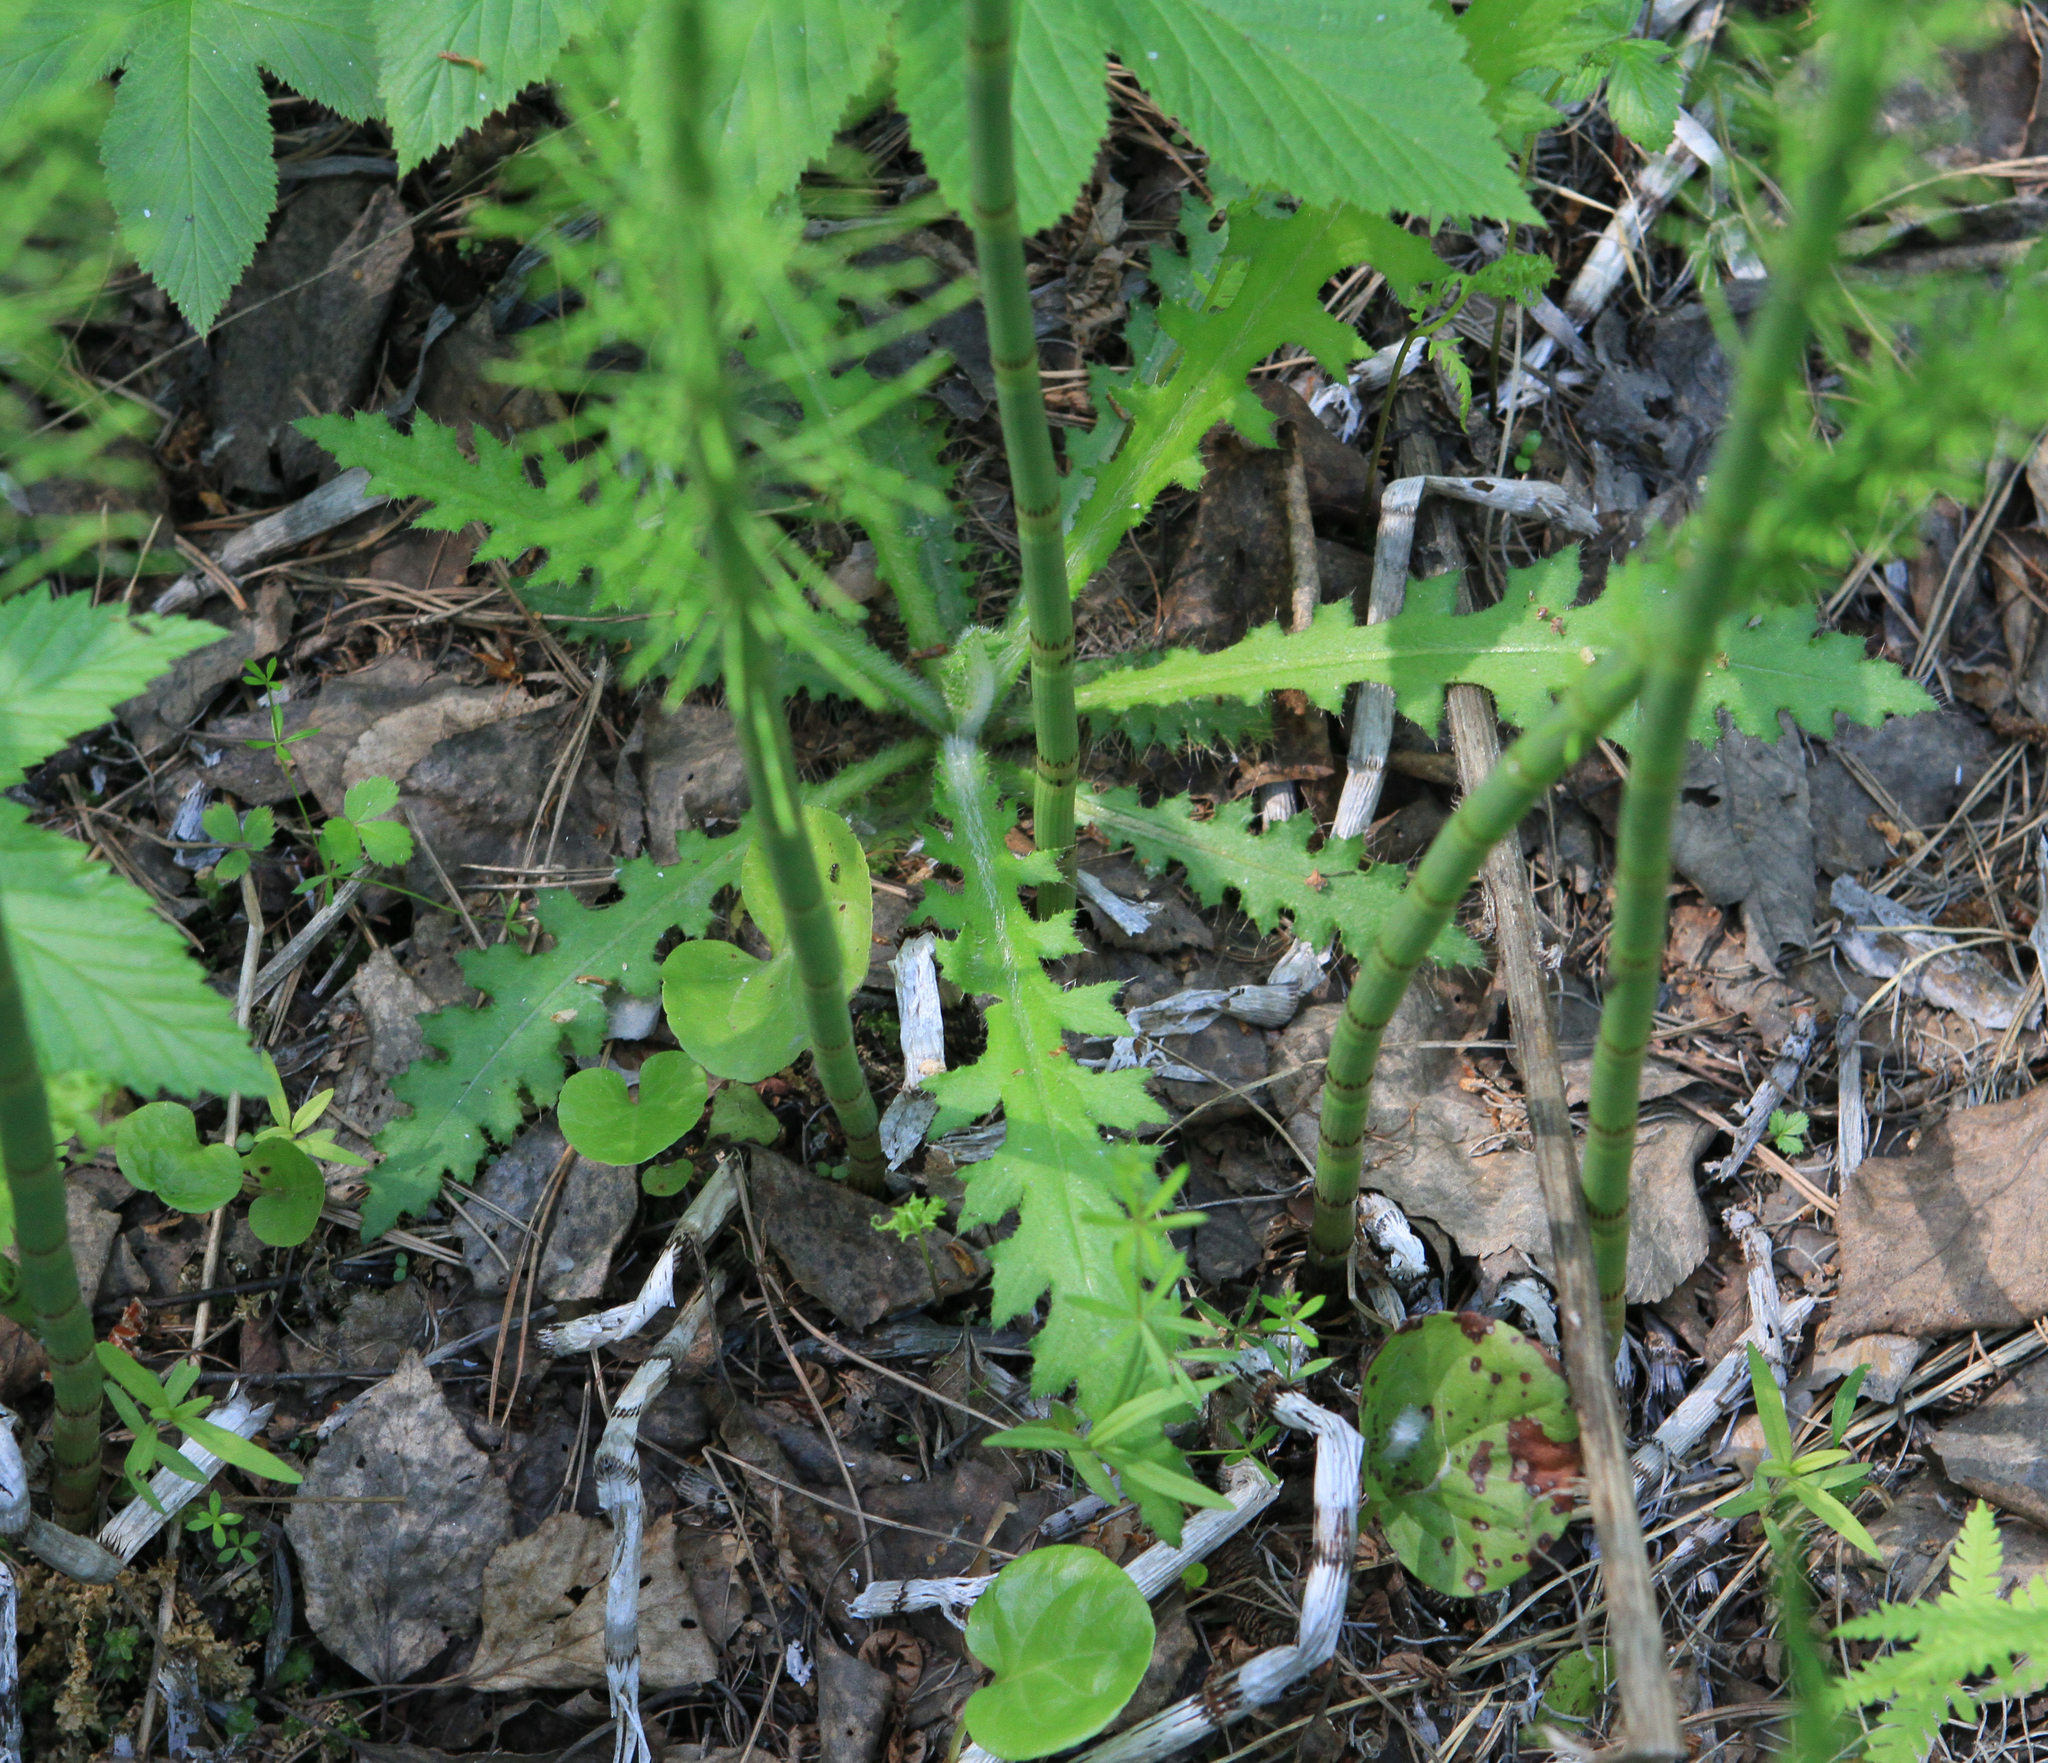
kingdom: Plantae
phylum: Tracheophyta
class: Magnoliopsida
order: Asterales
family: Asteraceae
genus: Cirsium
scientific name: Cirsium palustre
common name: Marsh thistle
